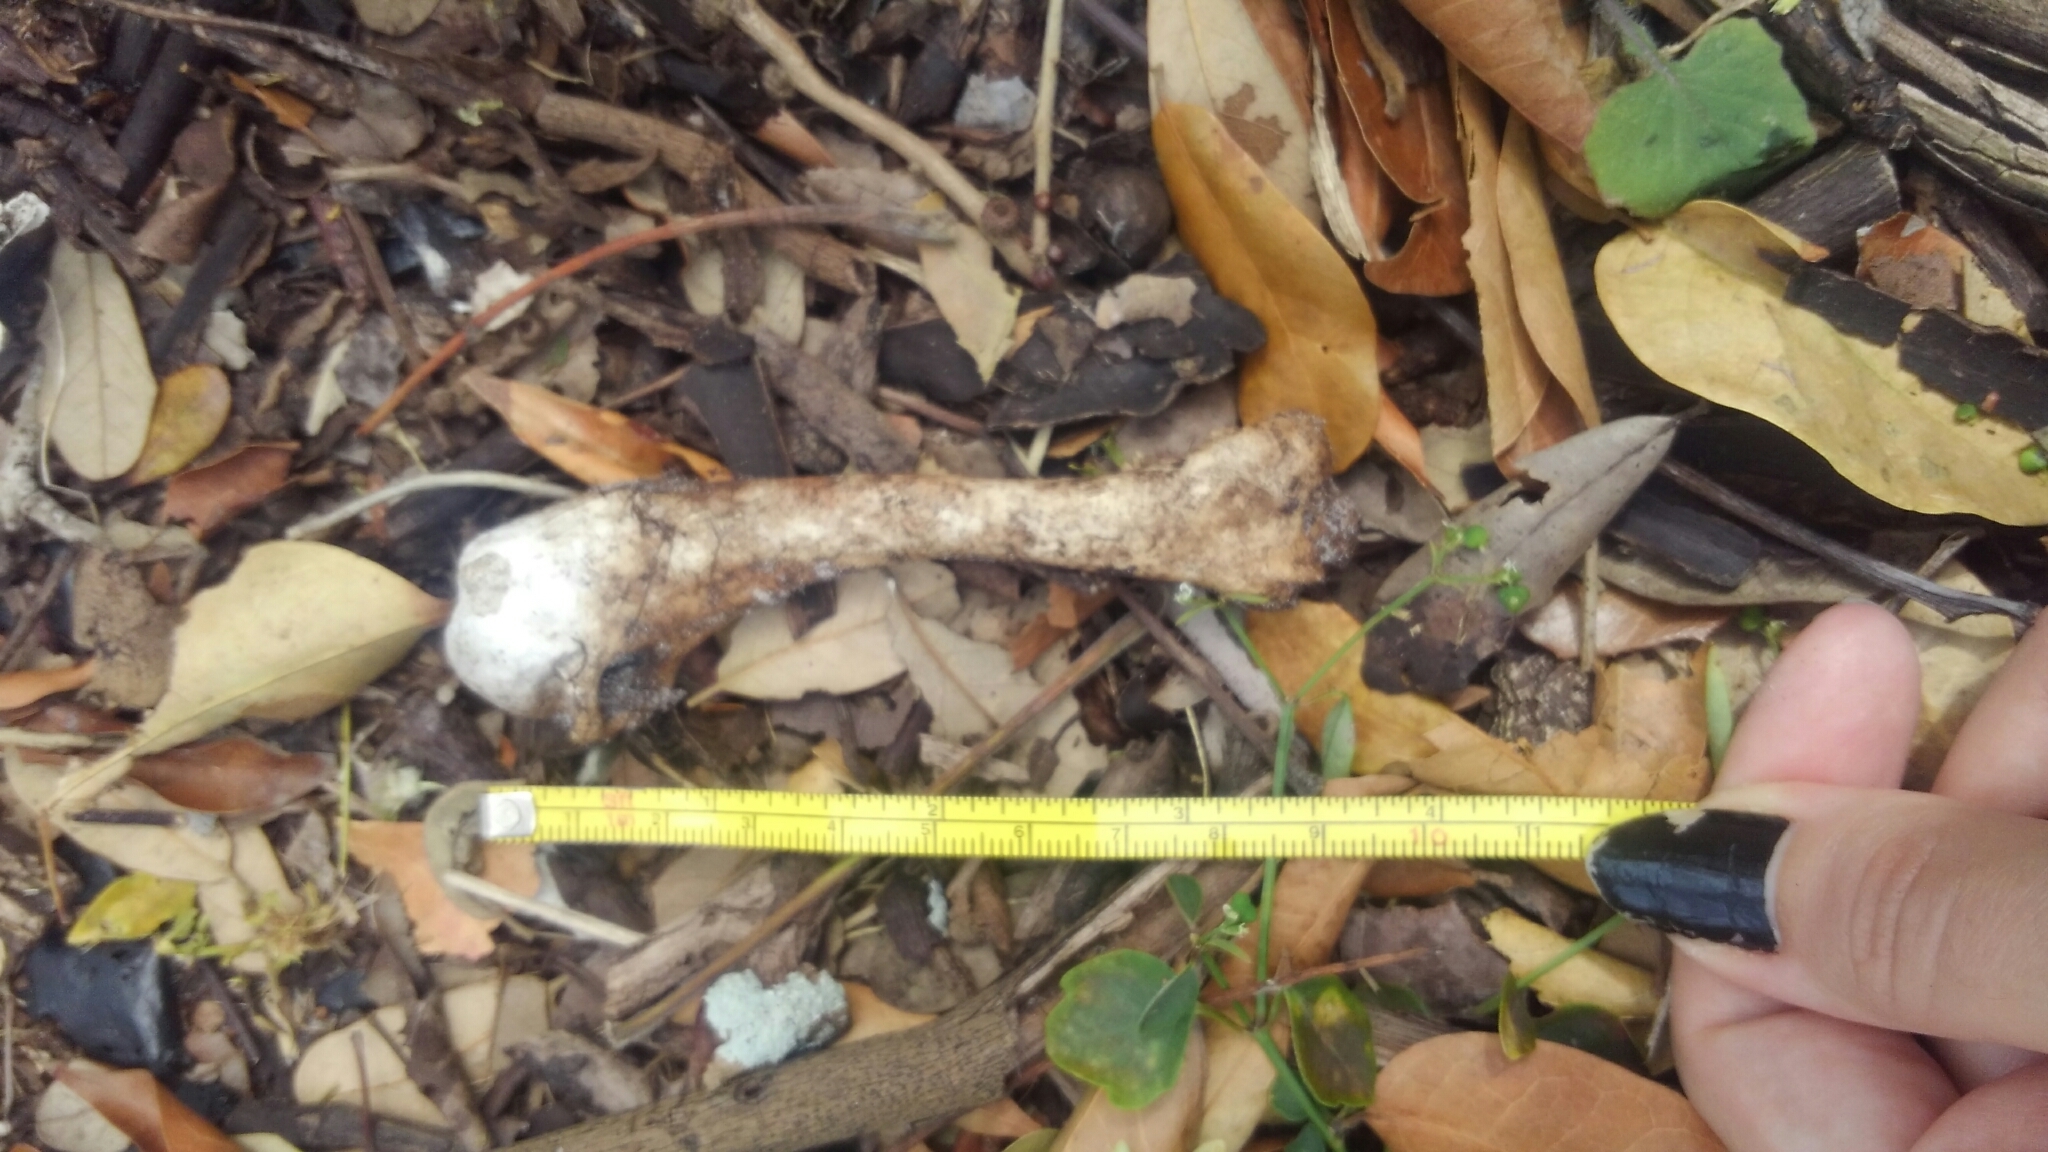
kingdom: Animalia
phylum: Chordata
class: Aves
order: Galliformes
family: Phasianidae
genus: Gallus
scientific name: Gallus gallus
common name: Red junglefowl
